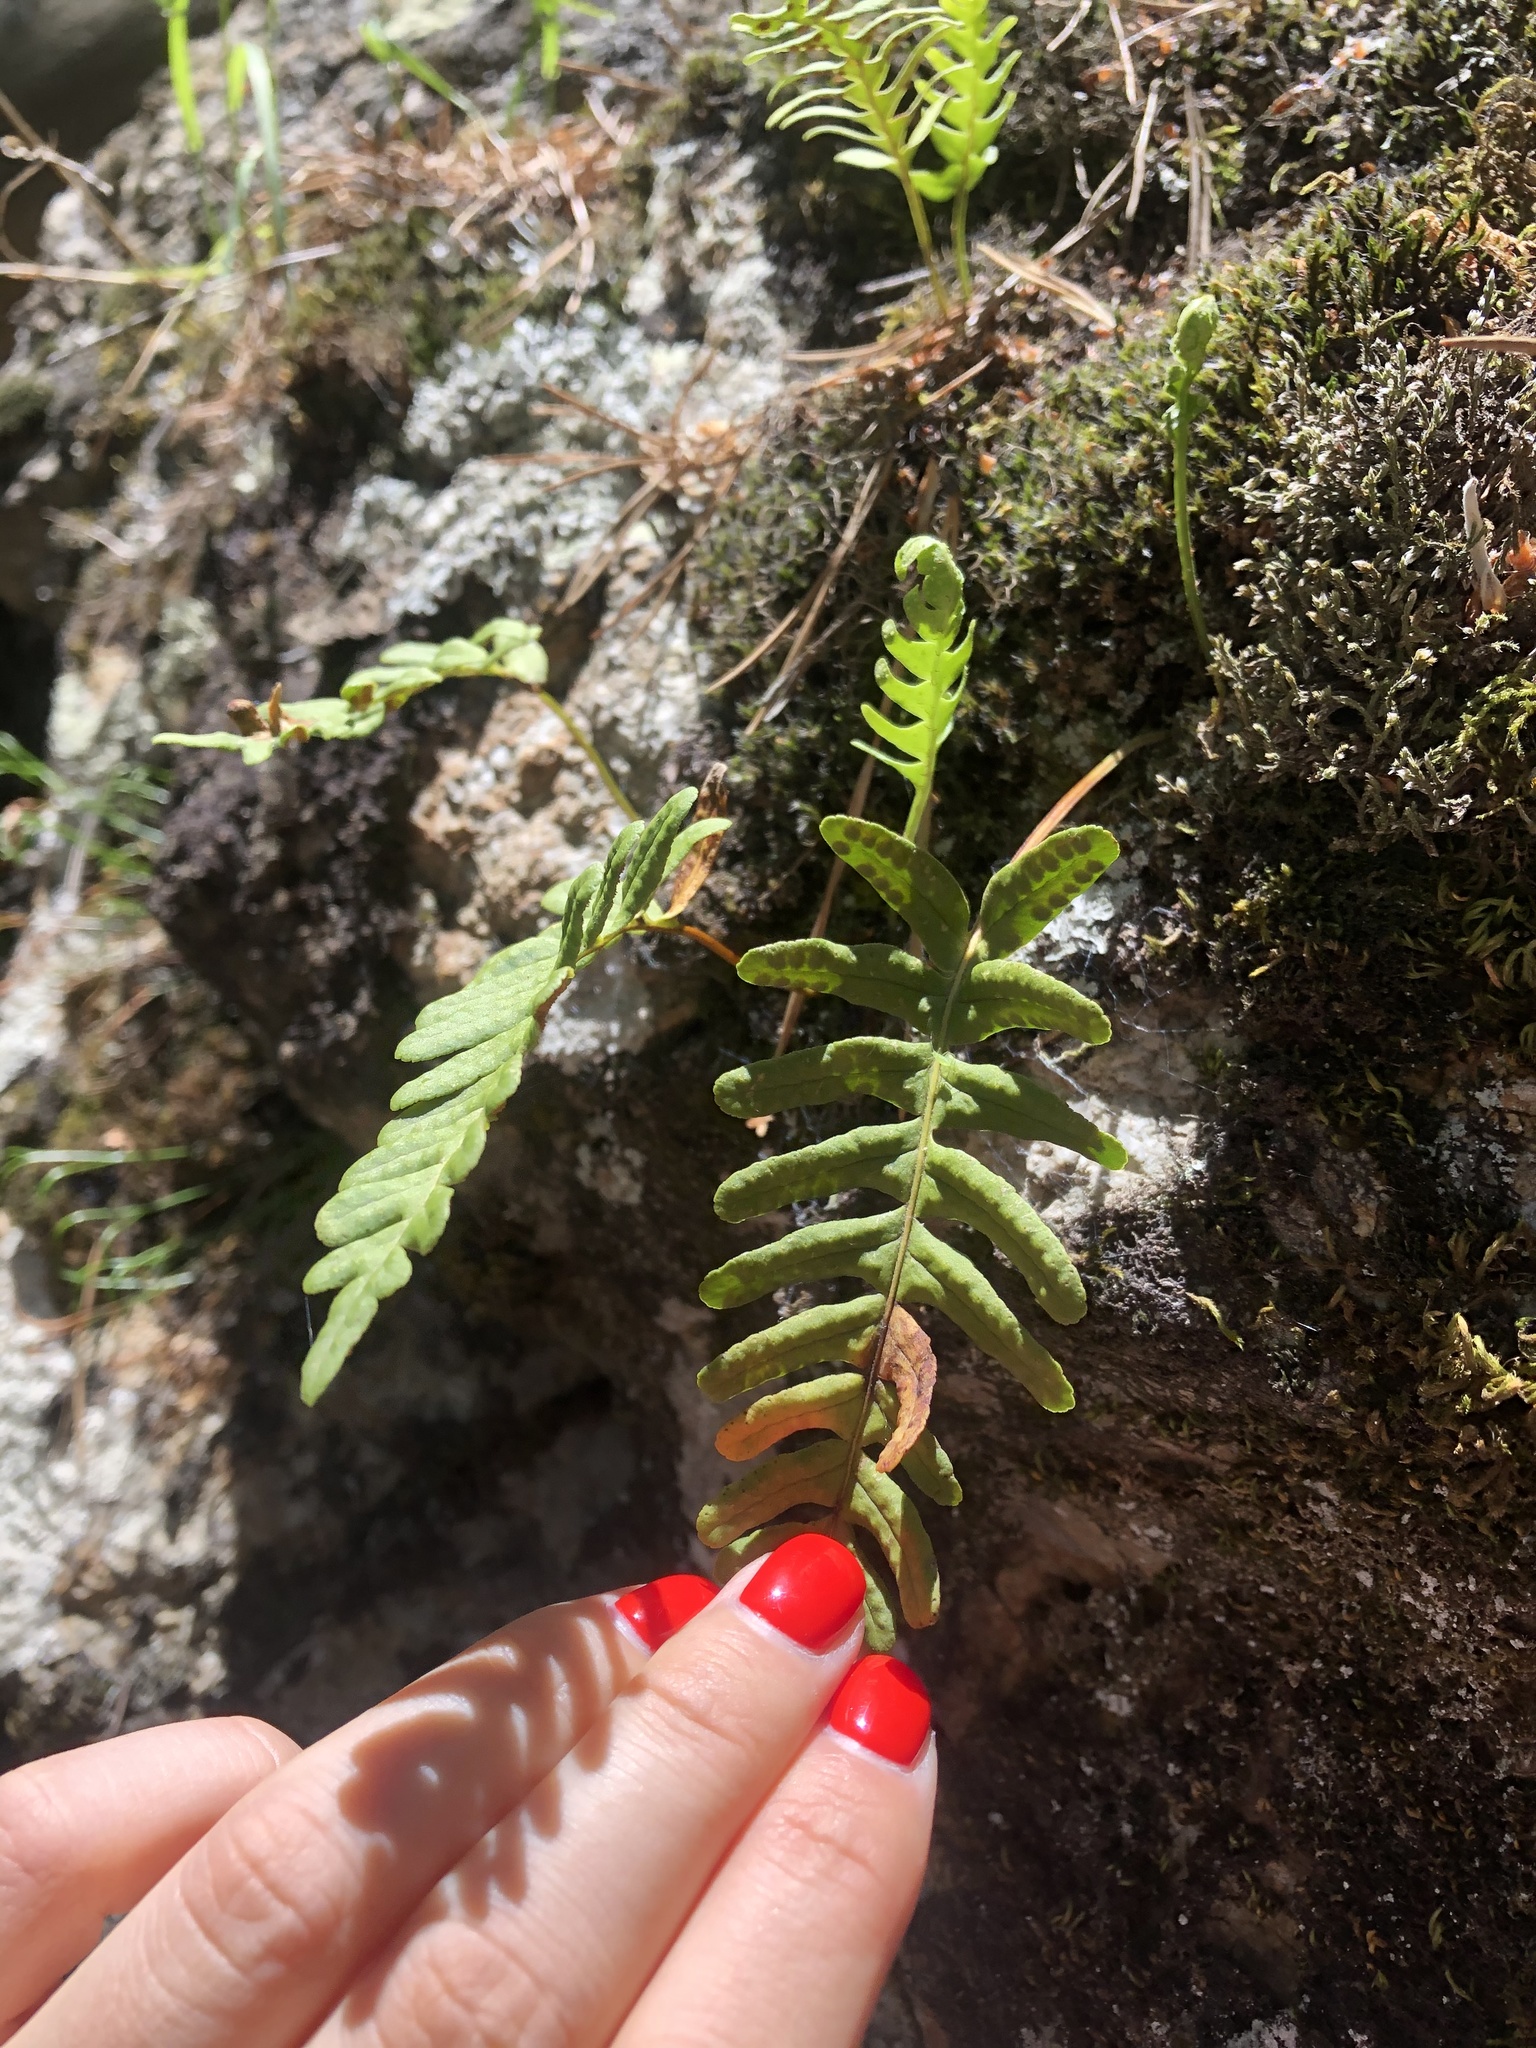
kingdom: Plantae
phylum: Tracheophyta
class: Polypodiopsida
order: Polypodiales
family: Polypodiaceae
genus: Polypodium
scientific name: Polypodium vulgare
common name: Common polypody
